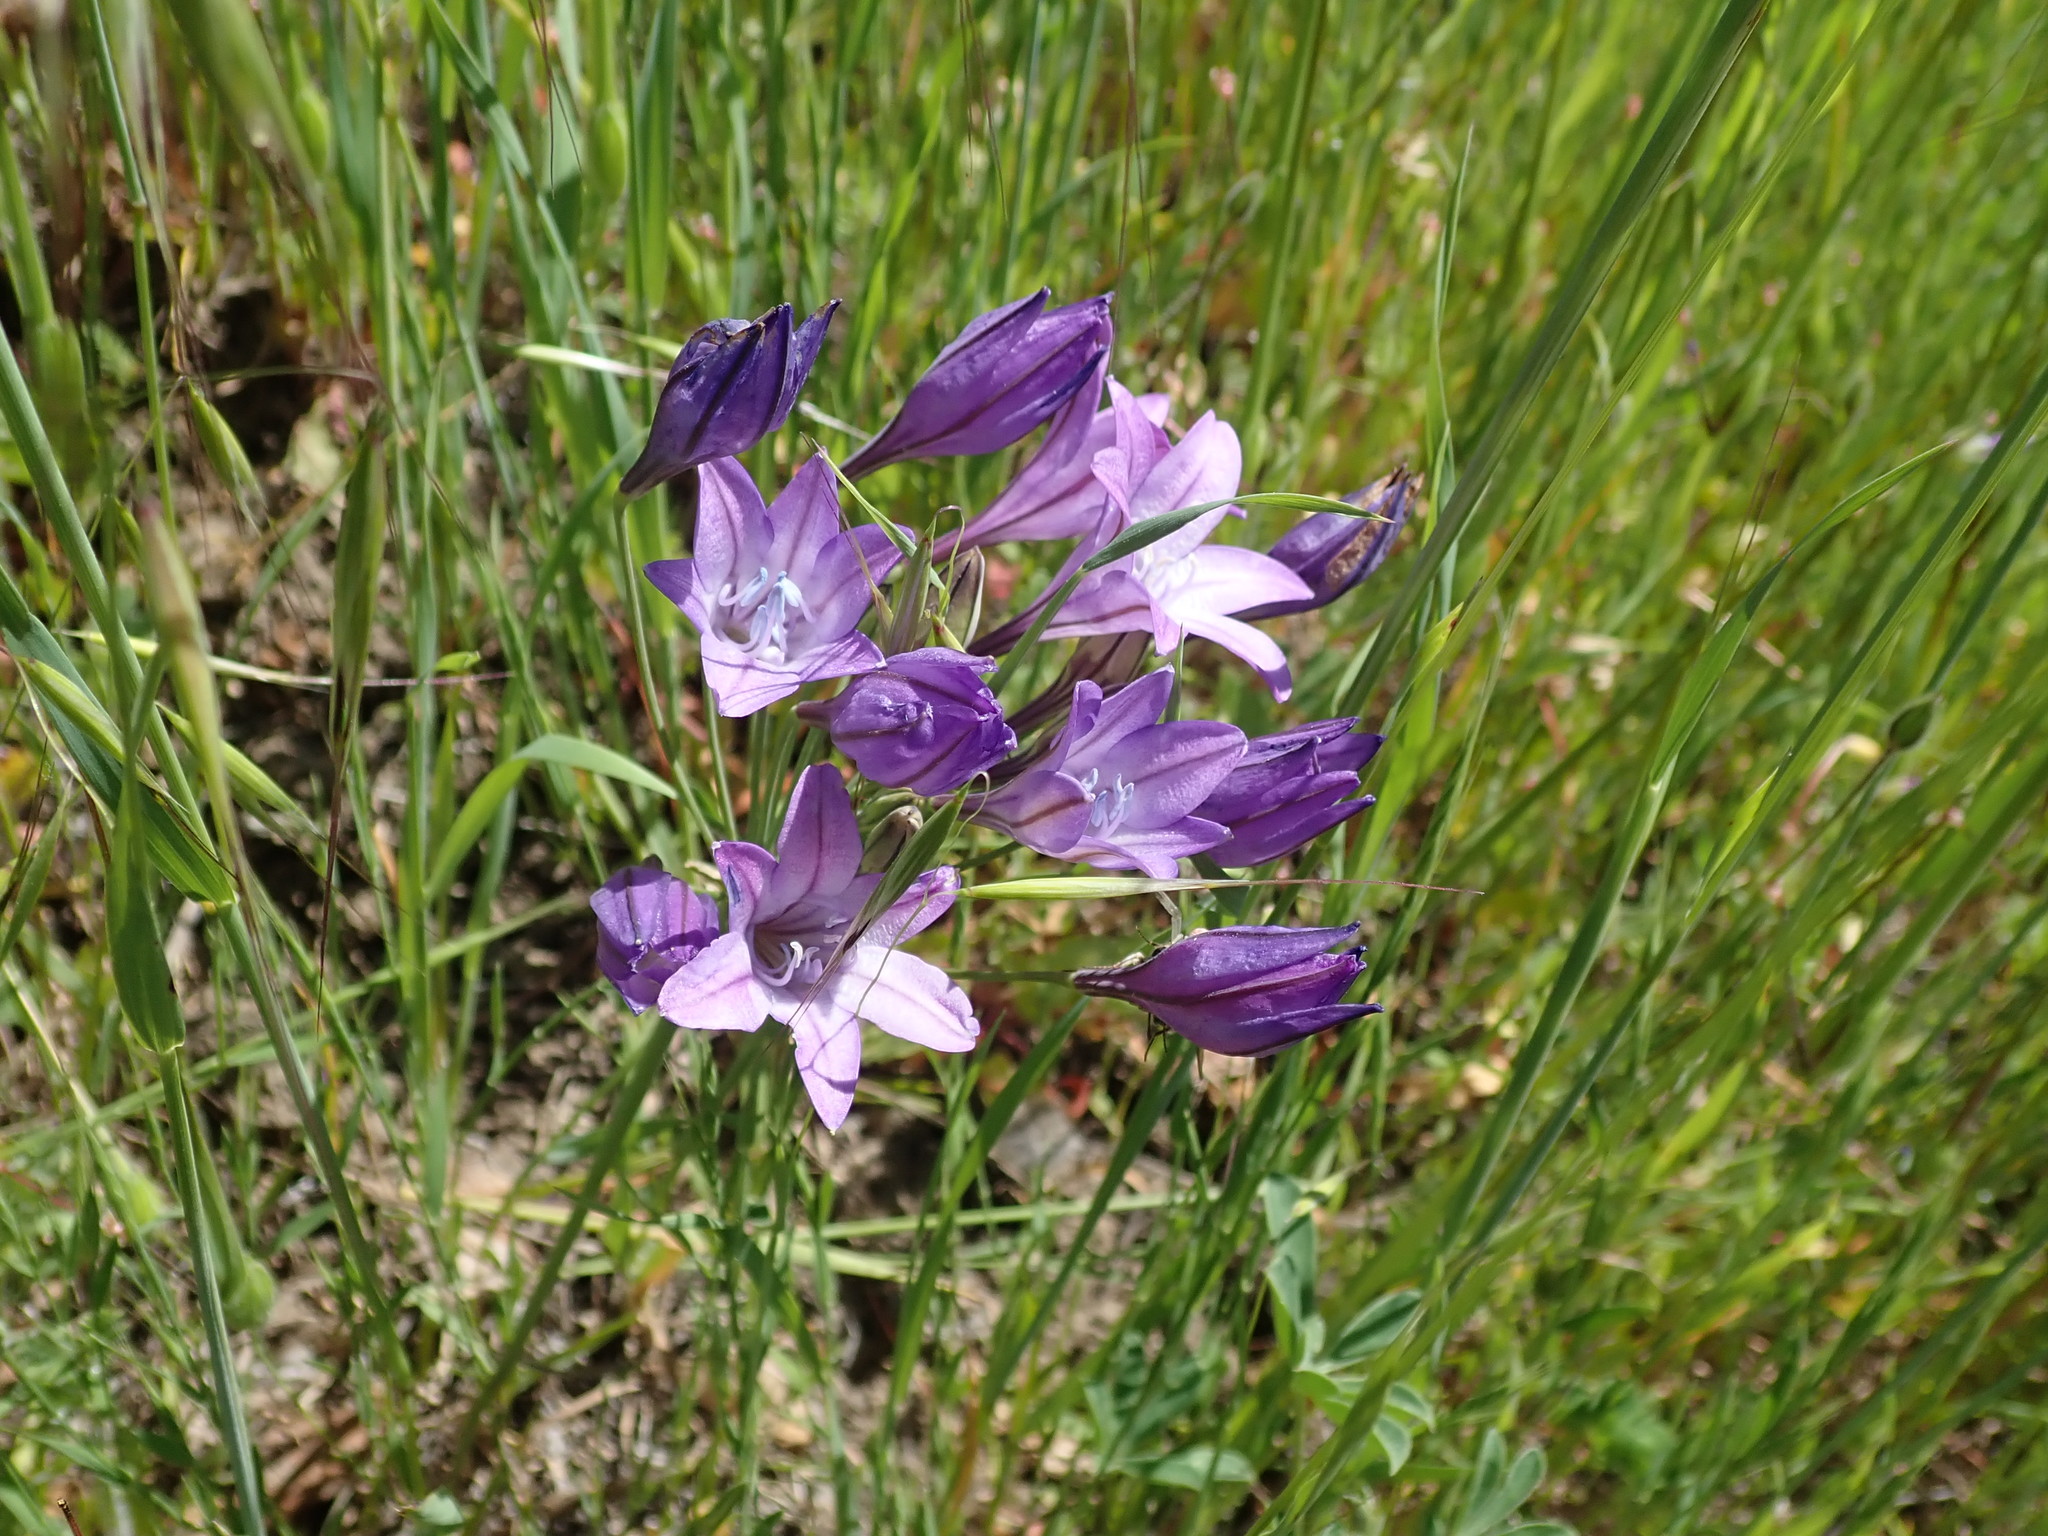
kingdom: Plantae
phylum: Tracheophyta
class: Liliopsida
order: Asparagales
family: Asparagaceae
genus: Triteleia
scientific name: Triteleia laxa
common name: Triplet-lily
